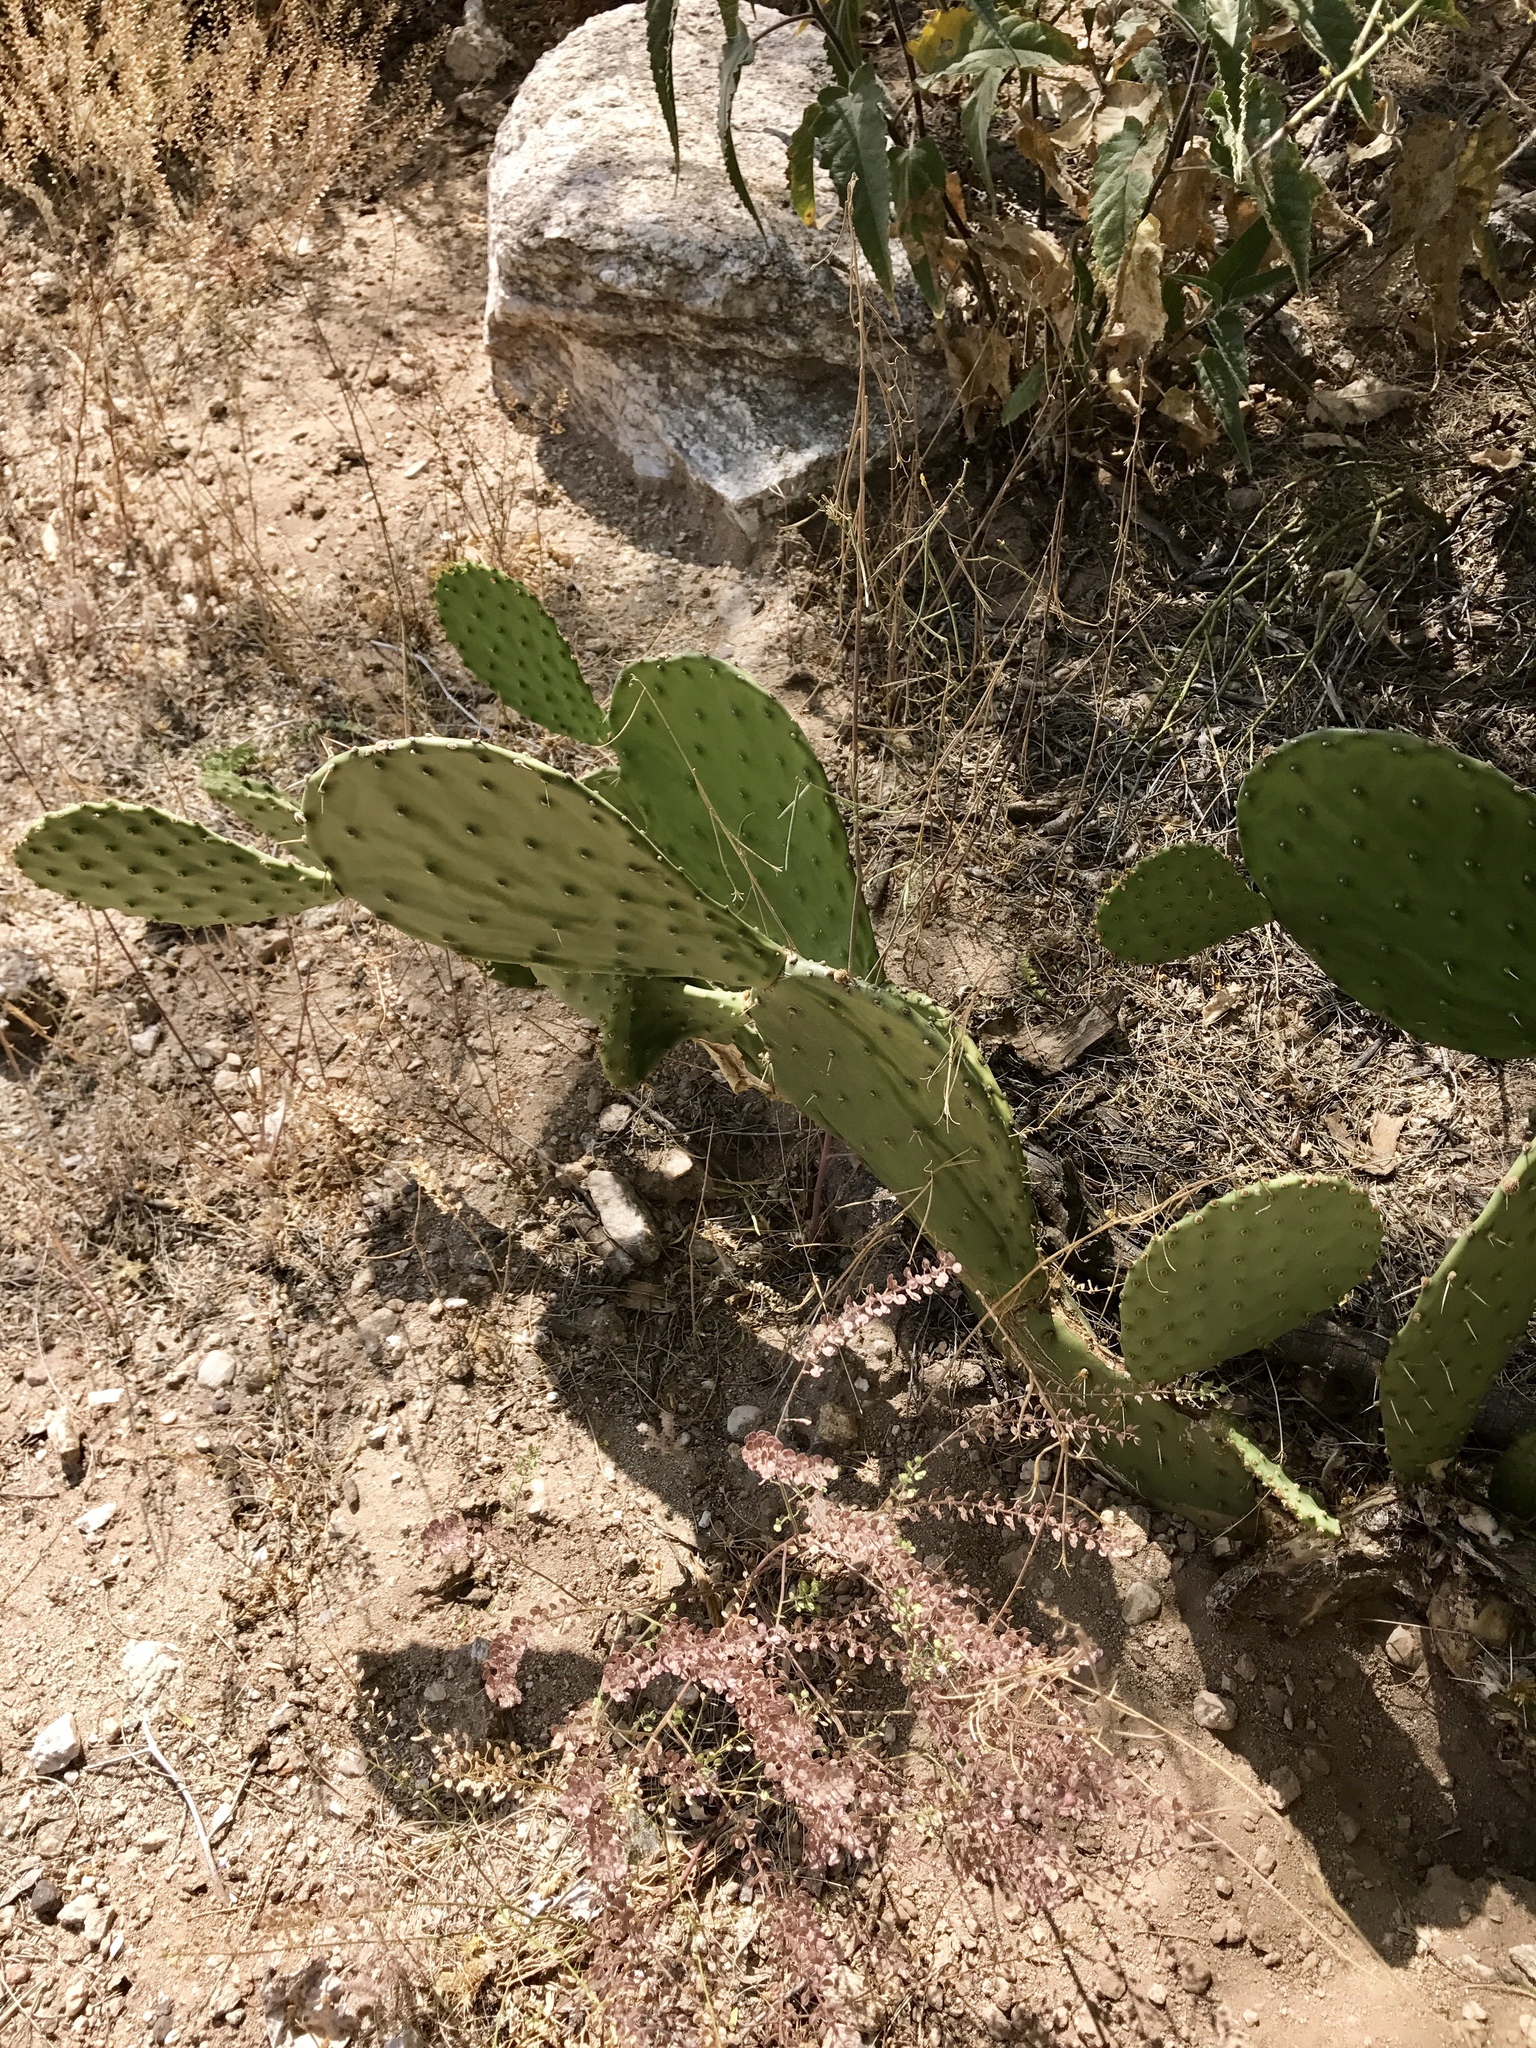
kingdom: Plantae
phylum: Tracheophyta
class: Magnoliopsida
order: Caryophyllales
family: Cactaceae
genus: Opuntia
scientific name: Opuntia engelmannii
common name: Cactus-apple
